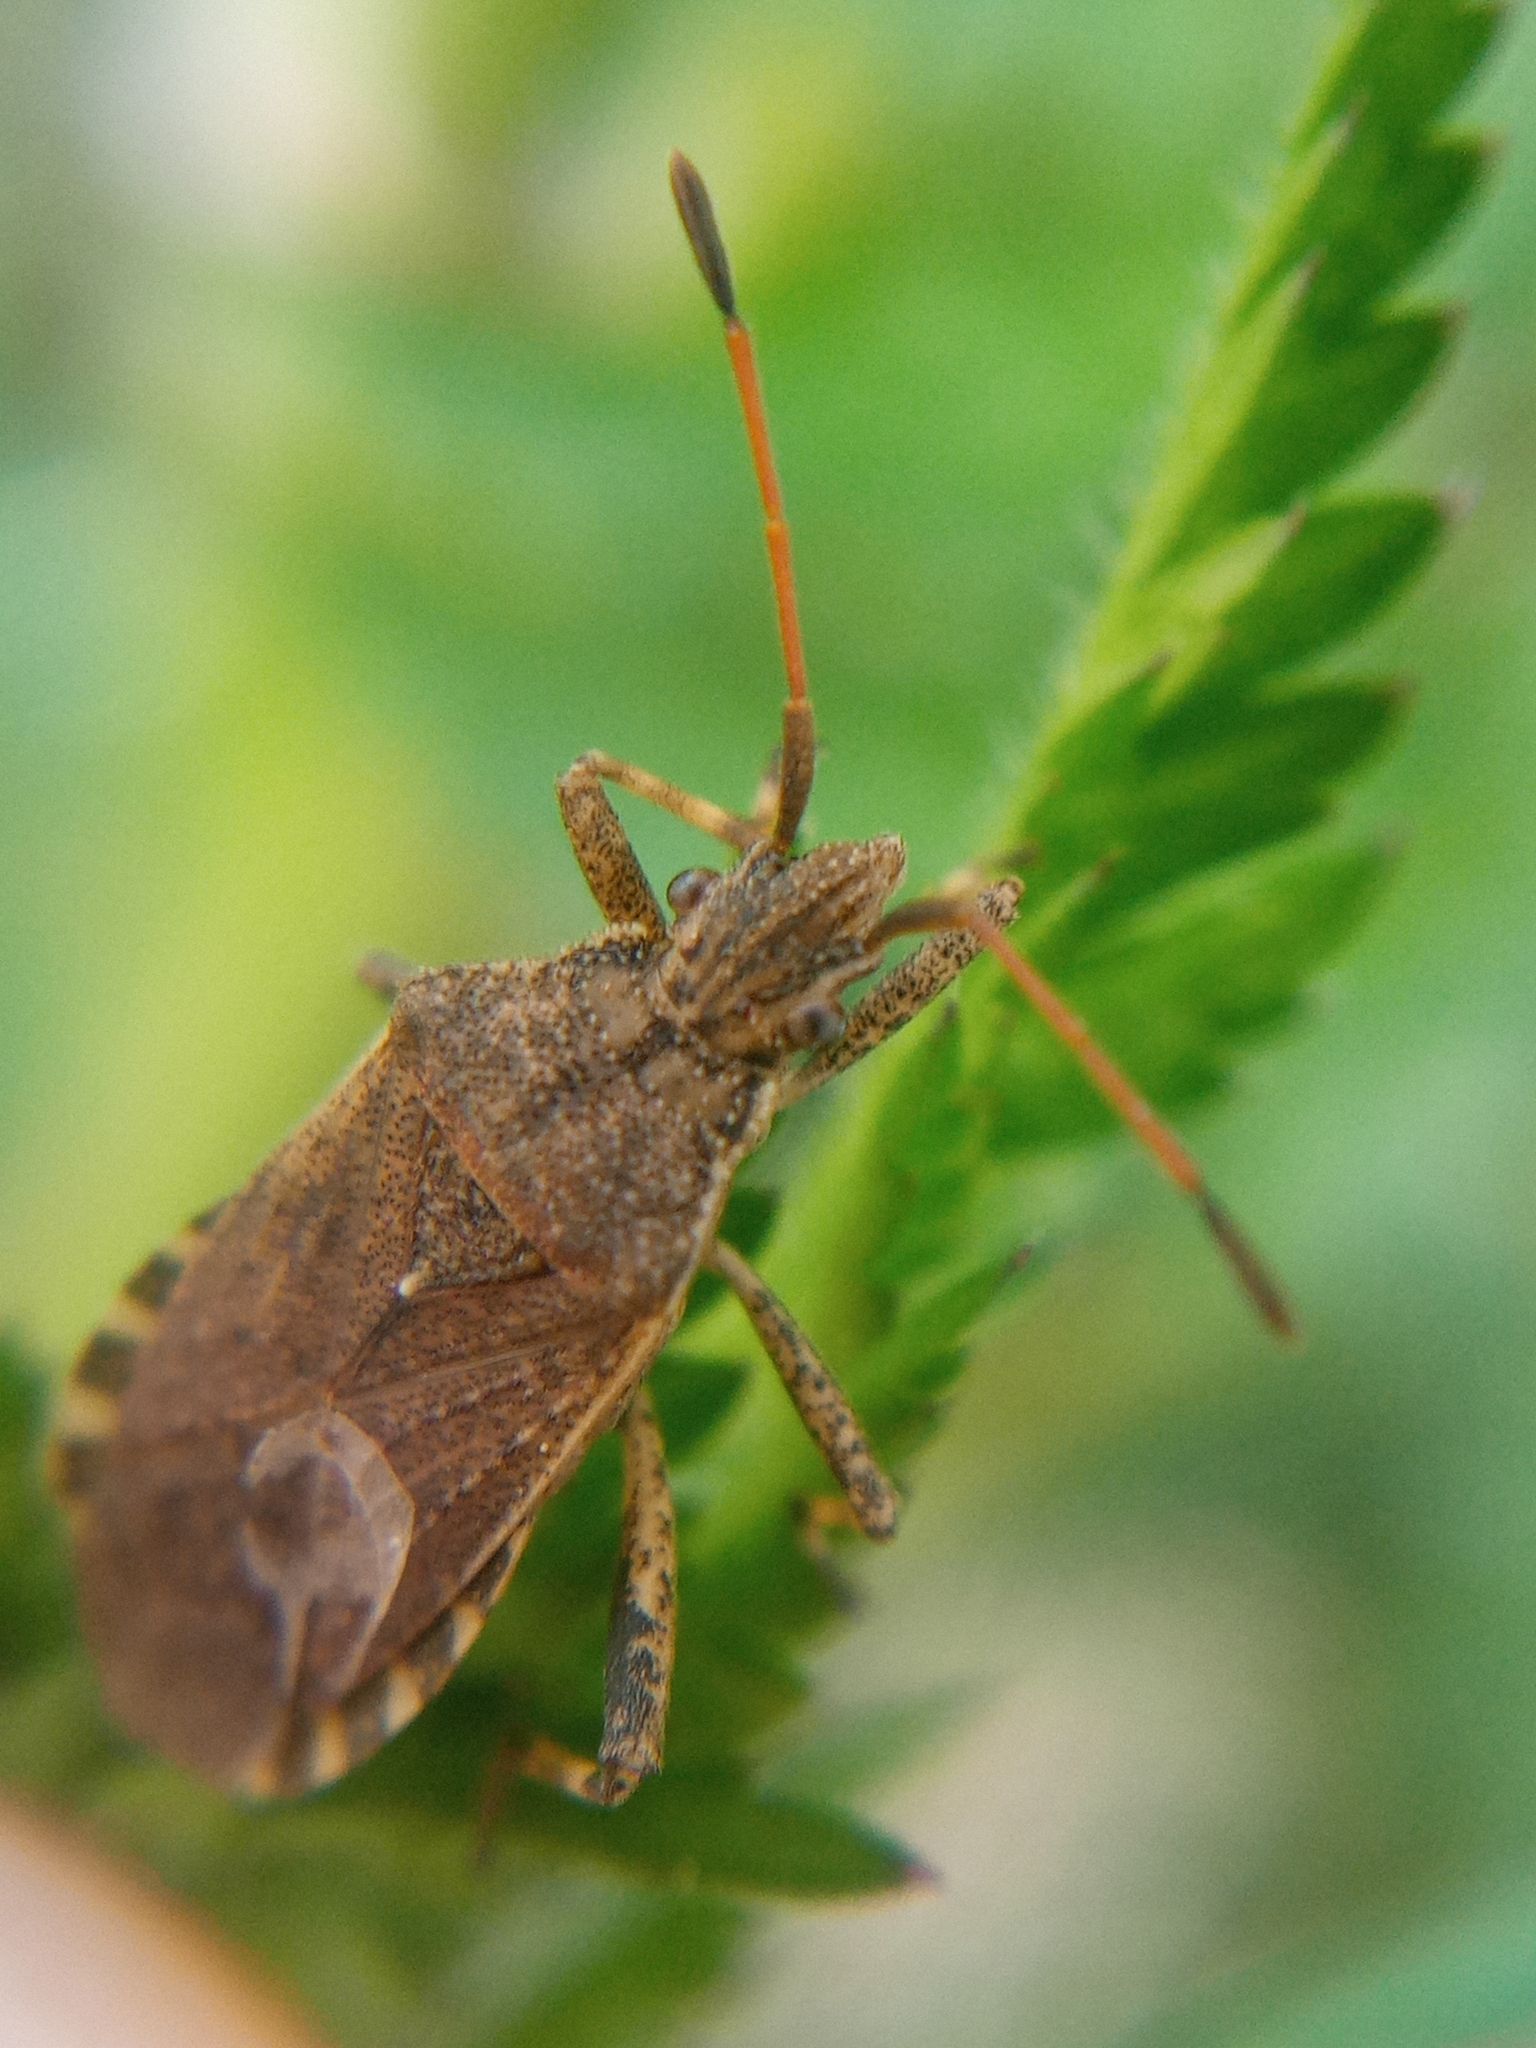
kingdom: Animalia
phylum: Arthropoda
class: Insecta
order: Hemiptera
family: Coreidae
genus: Ceraleptus
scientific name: Ceraleptus gracilicornis
